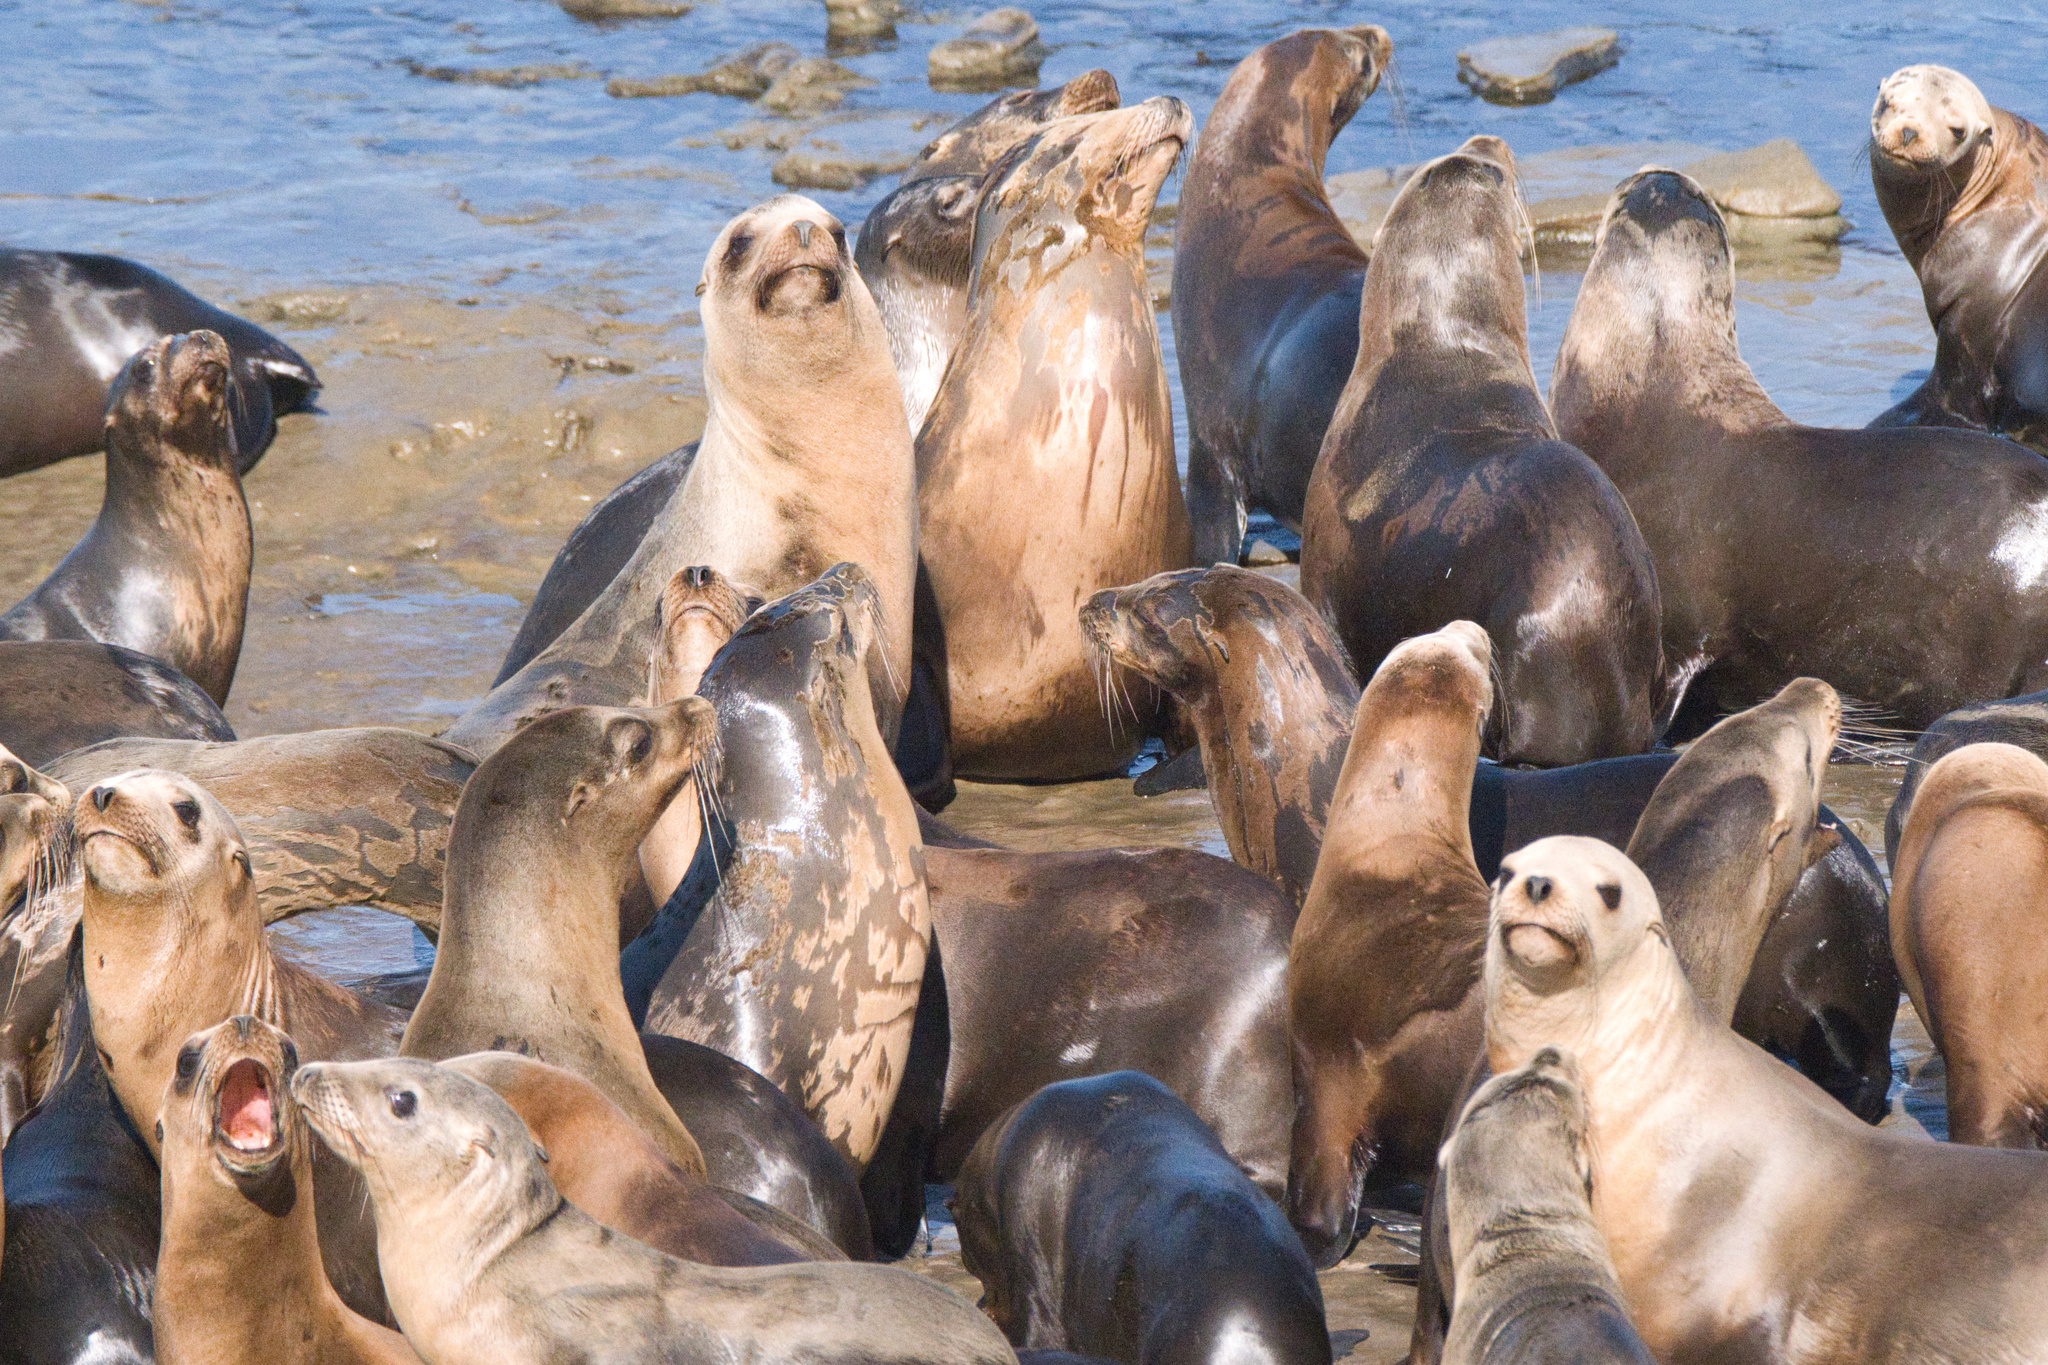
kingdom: Animalia
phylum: Chordata
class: Mammalia
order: Carnivora
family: Otariidae
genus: Zalophus
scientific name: Zalophus californianus
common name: California sea lion
